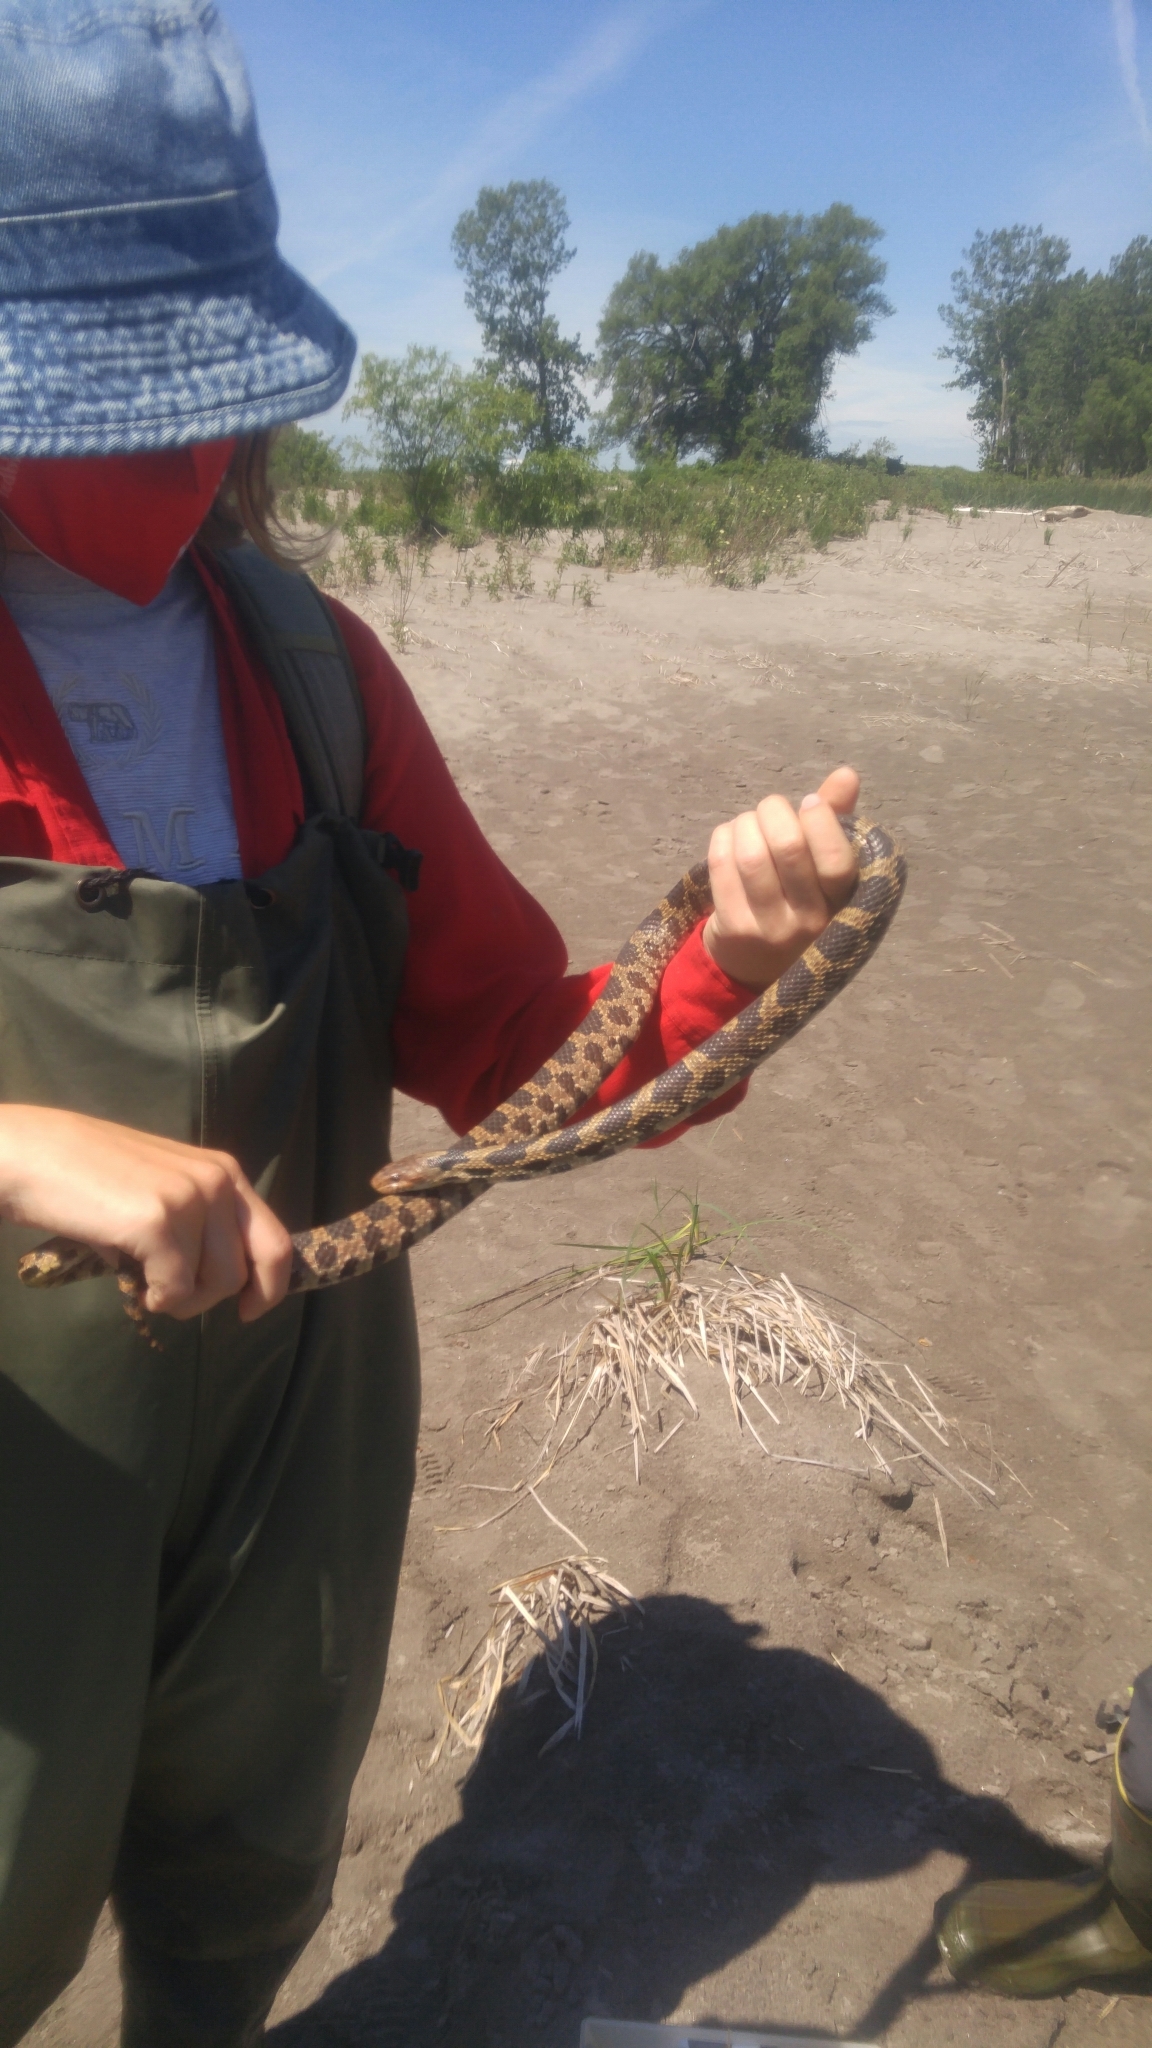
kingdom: Animalia
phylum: Chordata
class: Squamata
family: Colubridae
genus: Pantherophis
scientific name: Pantherophis vulpinus
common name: Eastern fox snake
